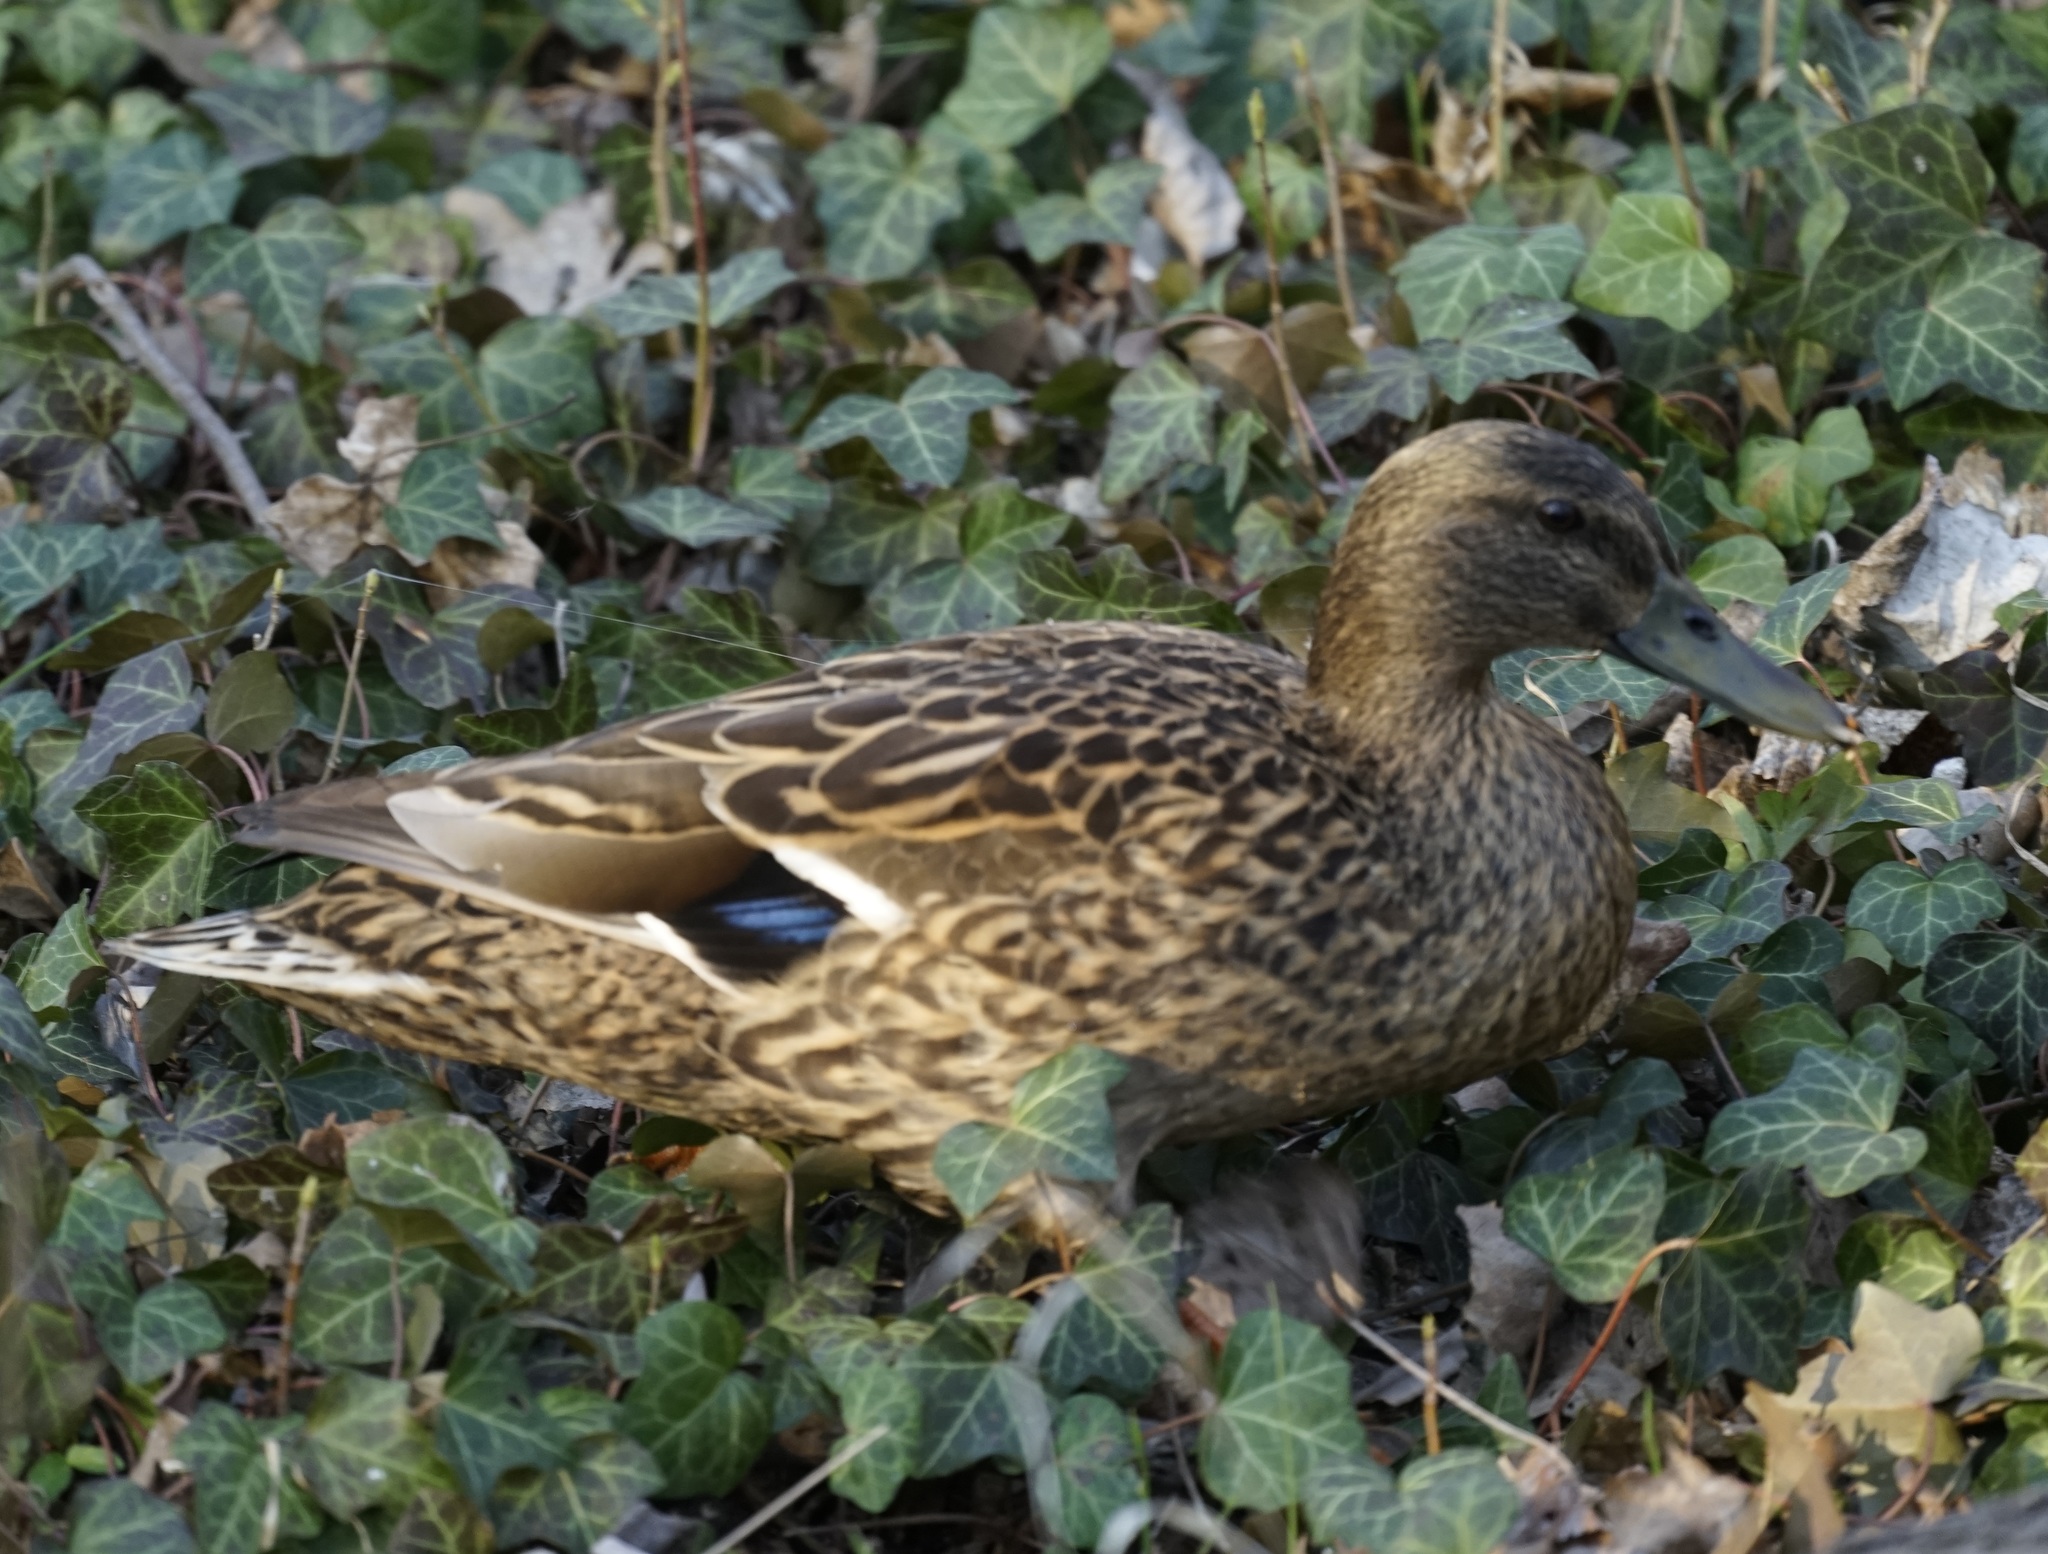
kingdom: Animalia
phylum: Chordata
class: Aves
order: Anseriformes
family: Anatidae
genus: Anas
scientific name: Anas platyrhynchos
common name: Mallard
